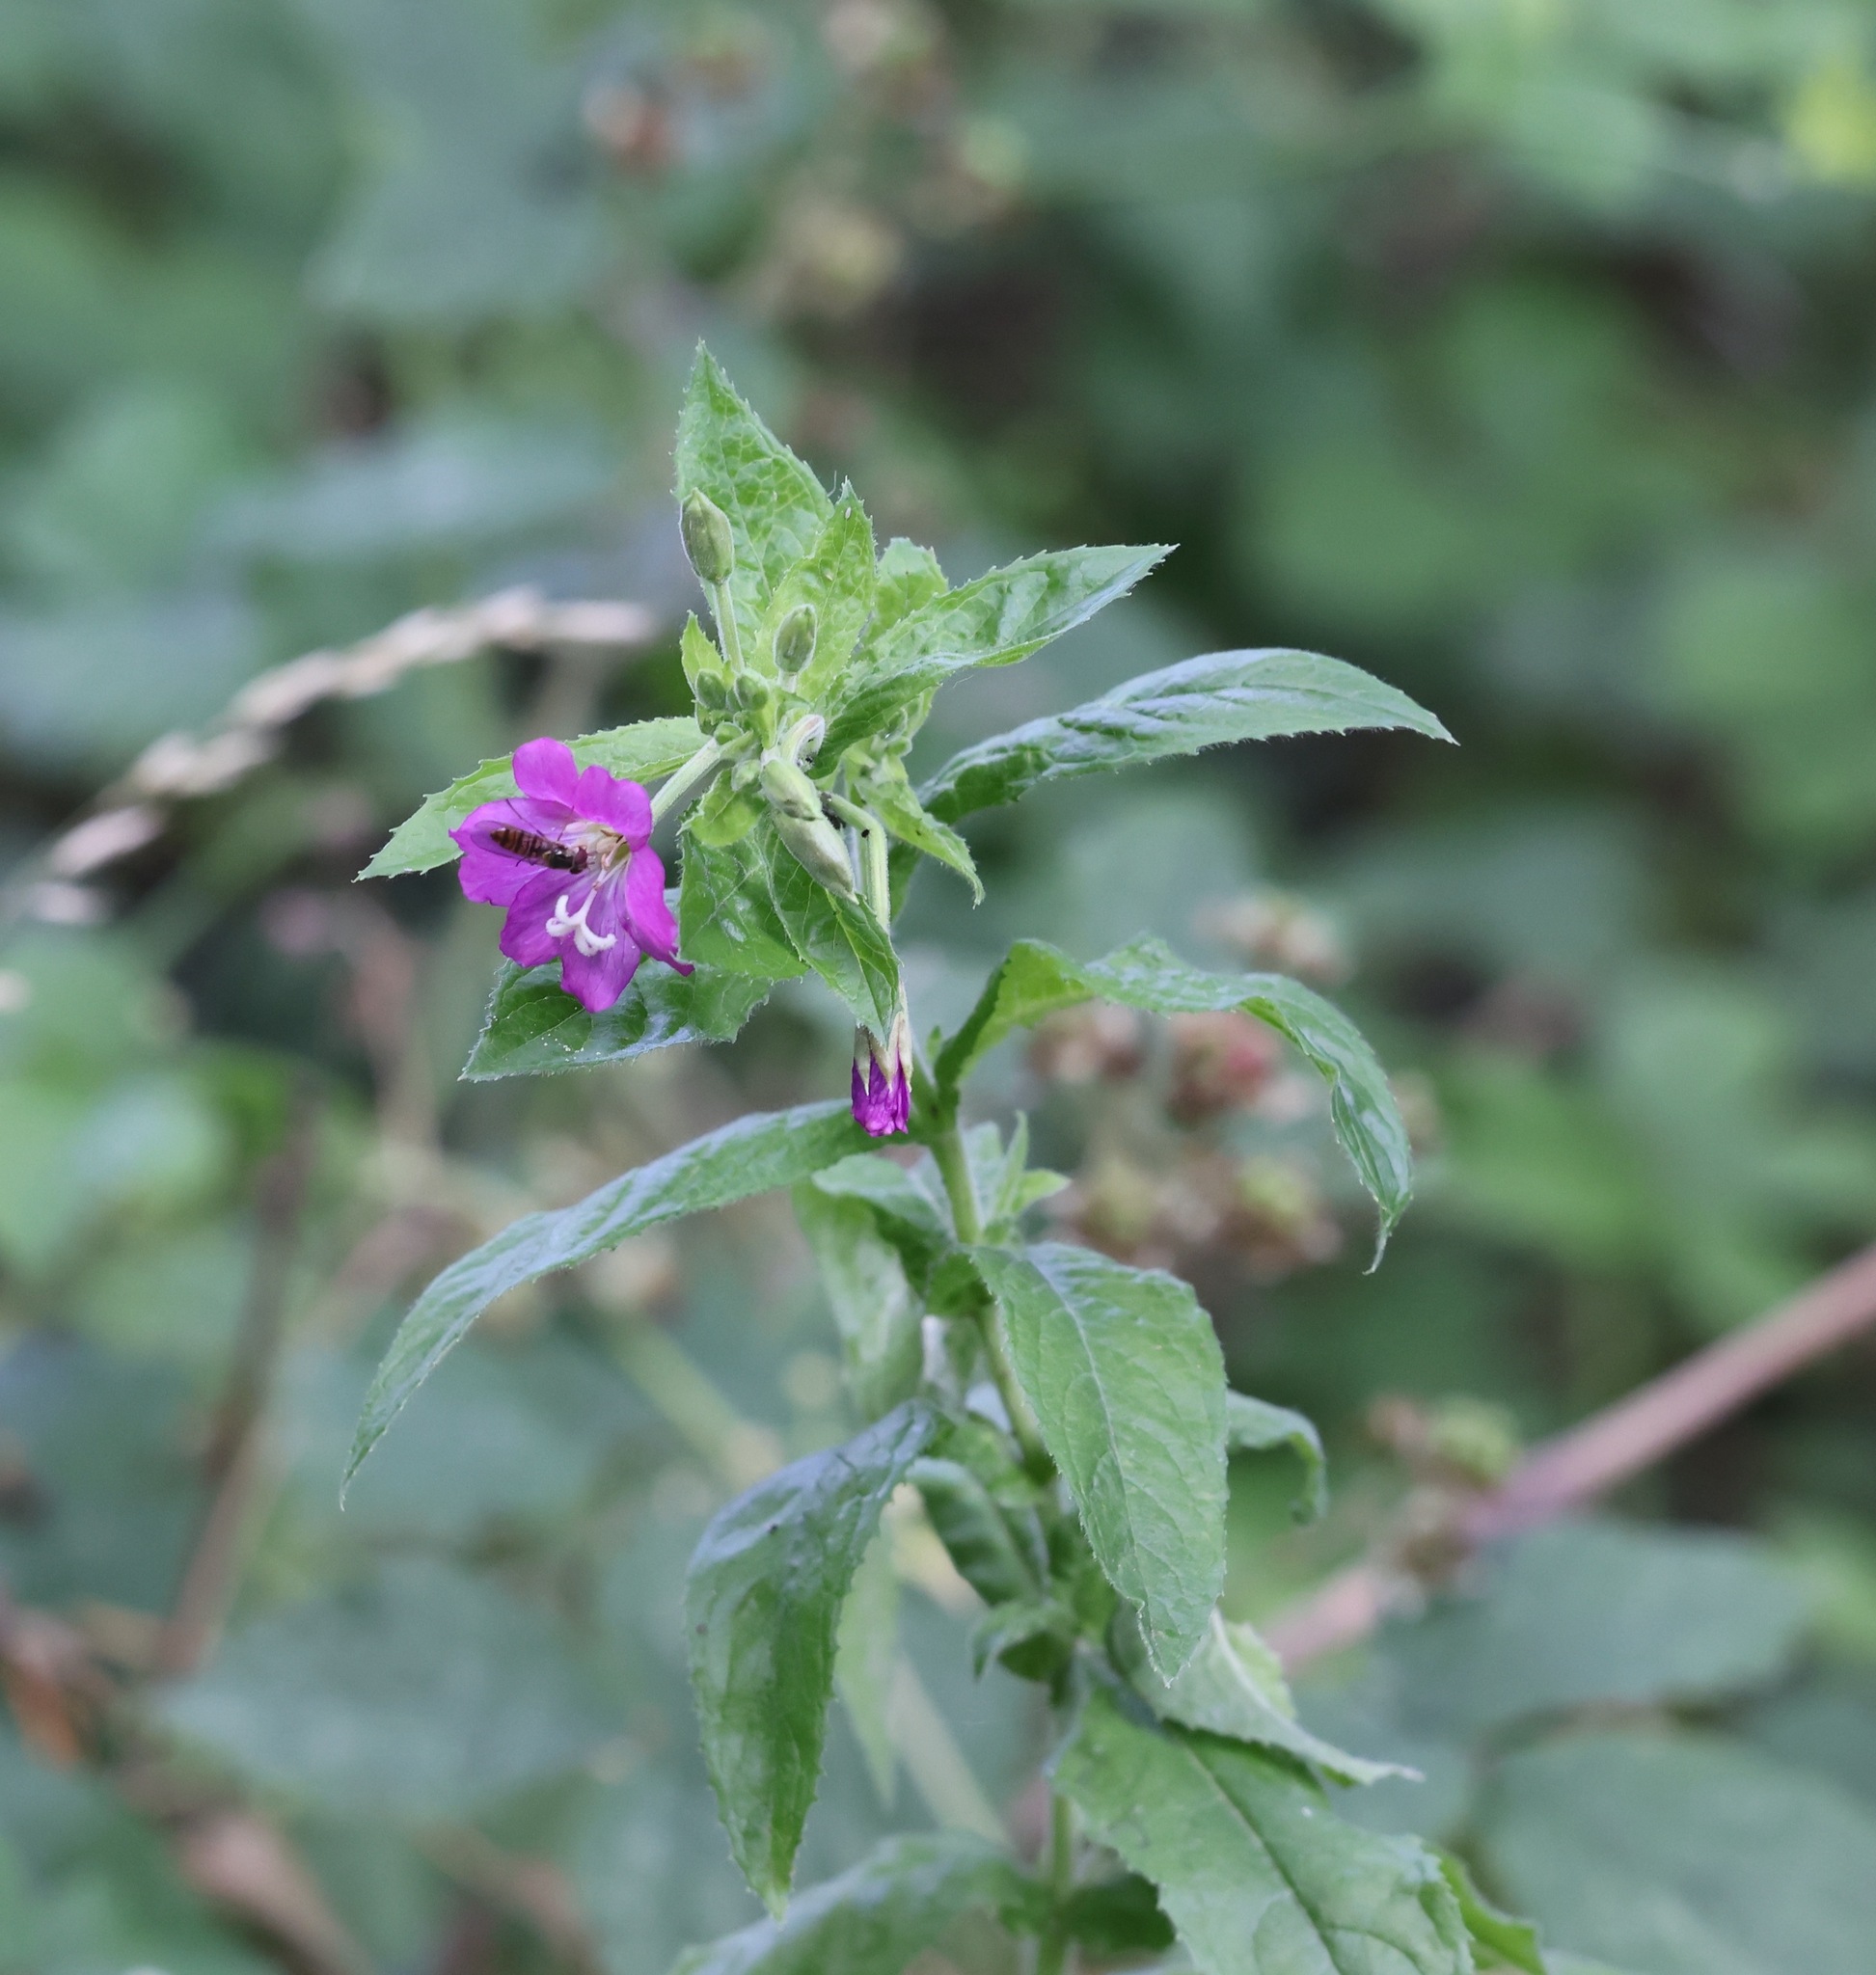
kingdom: Plantae
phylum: Tracheophyta
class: Magnoliopsida
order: Myrtales
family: Onagraceae
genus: Epilobium
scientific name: Epilobium hirsutum
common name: Great willowherb
